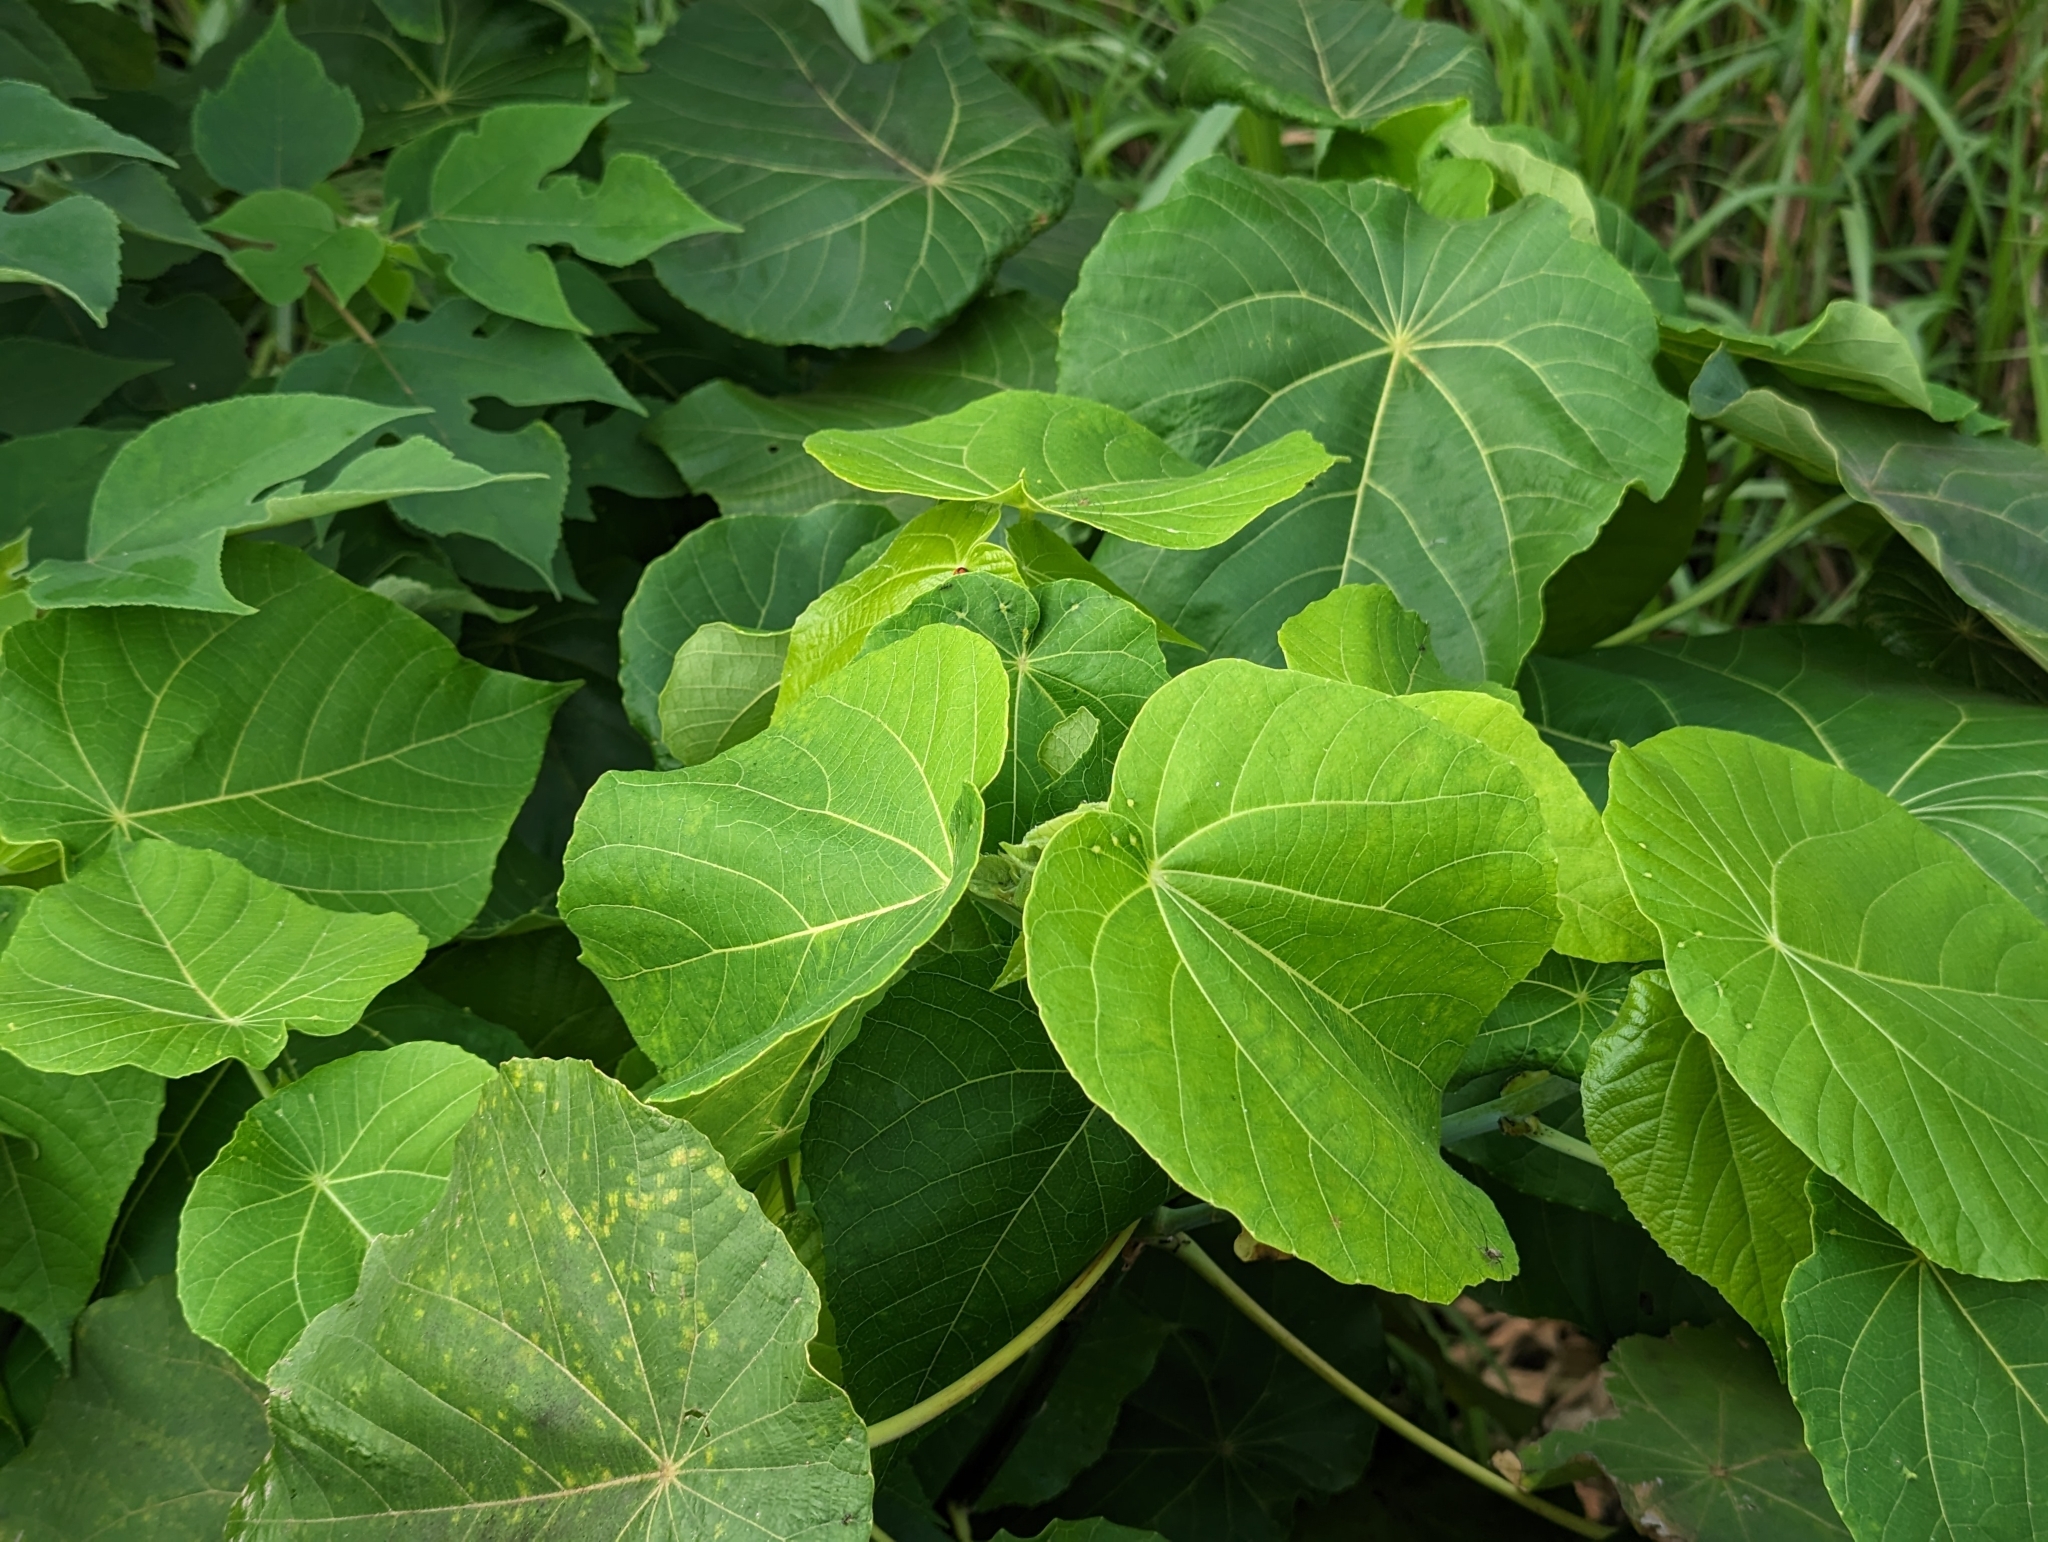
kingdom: Plantae
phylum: Tracheophyta
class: Magnoliopsida
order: Malpighiales
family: Euphorbiaceae
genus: Macaranga
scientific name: Macaranga tanarius
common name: Parasol leaf tree
